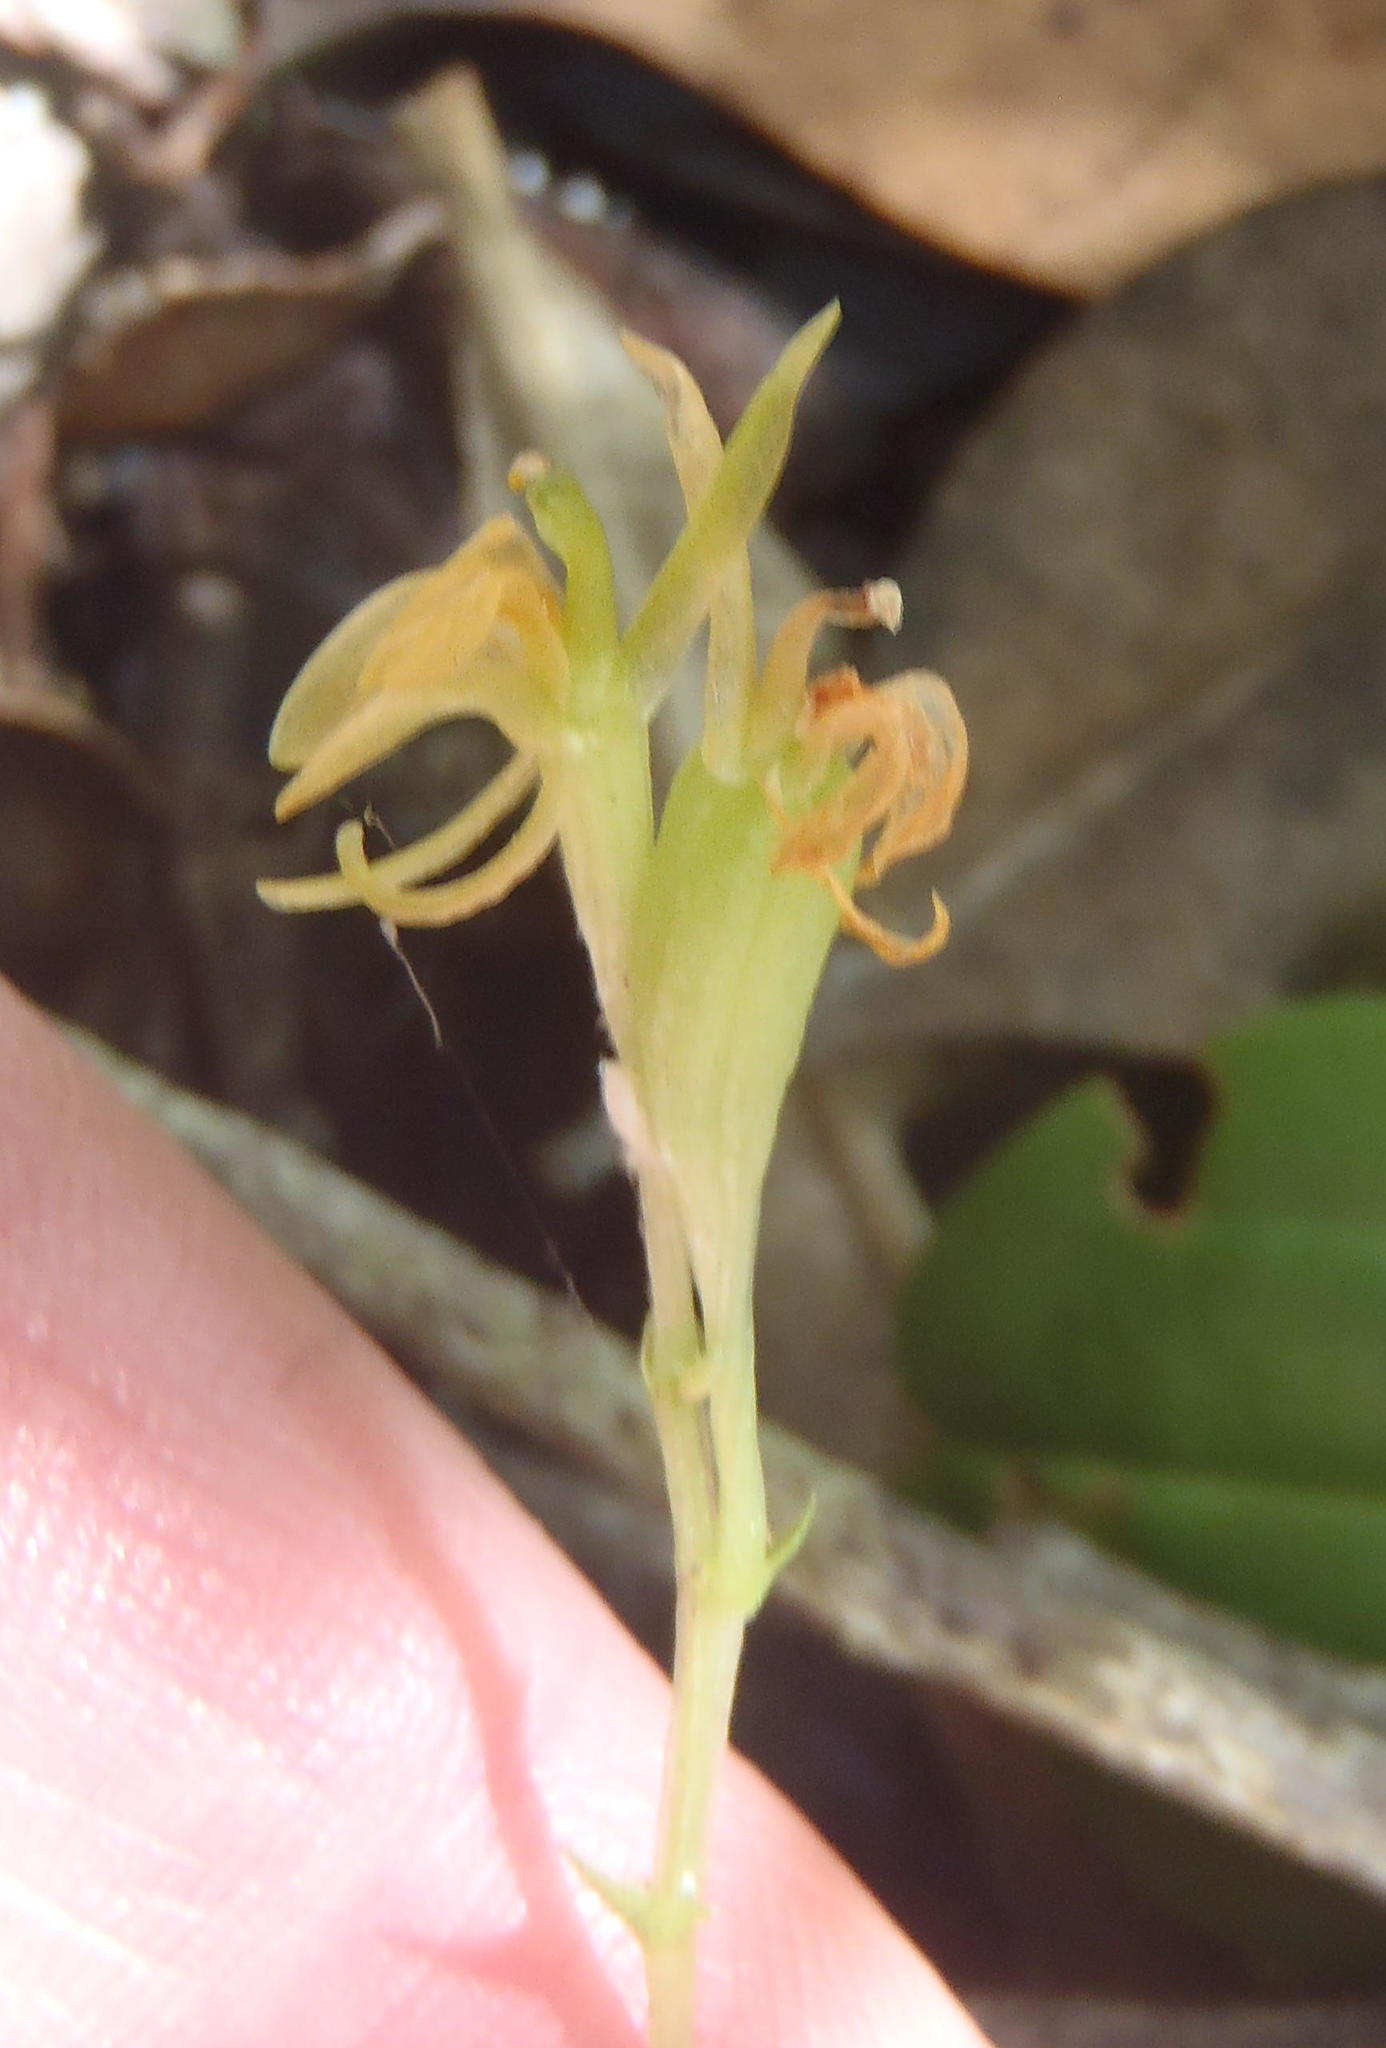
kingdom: Plantae
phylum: Tracheophyta
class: Liliopsida
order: Asparagales
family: Orchidaceae
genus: Liparis
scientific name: Liparis remota
